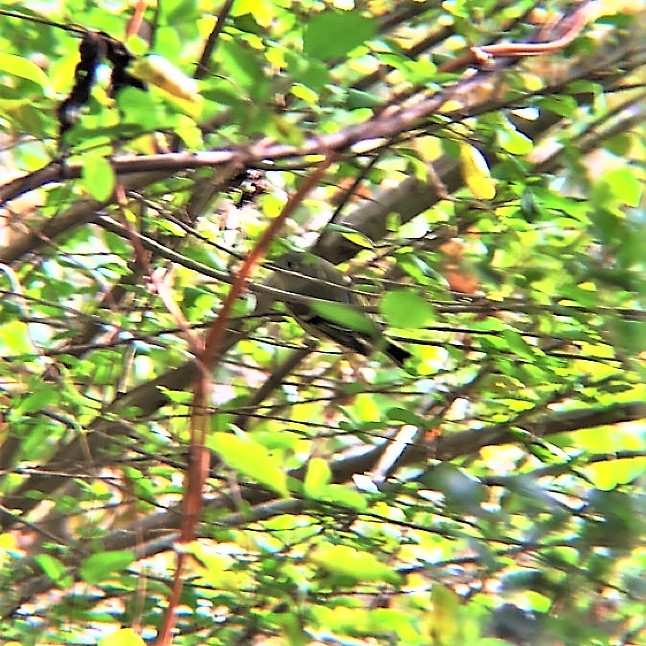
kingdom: Animalia
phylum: Chordata
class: Aves
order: Passeriformes
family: Regulidae
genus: Regulus
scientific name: Regulus calendula
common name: Ruby-crowned kinglet
